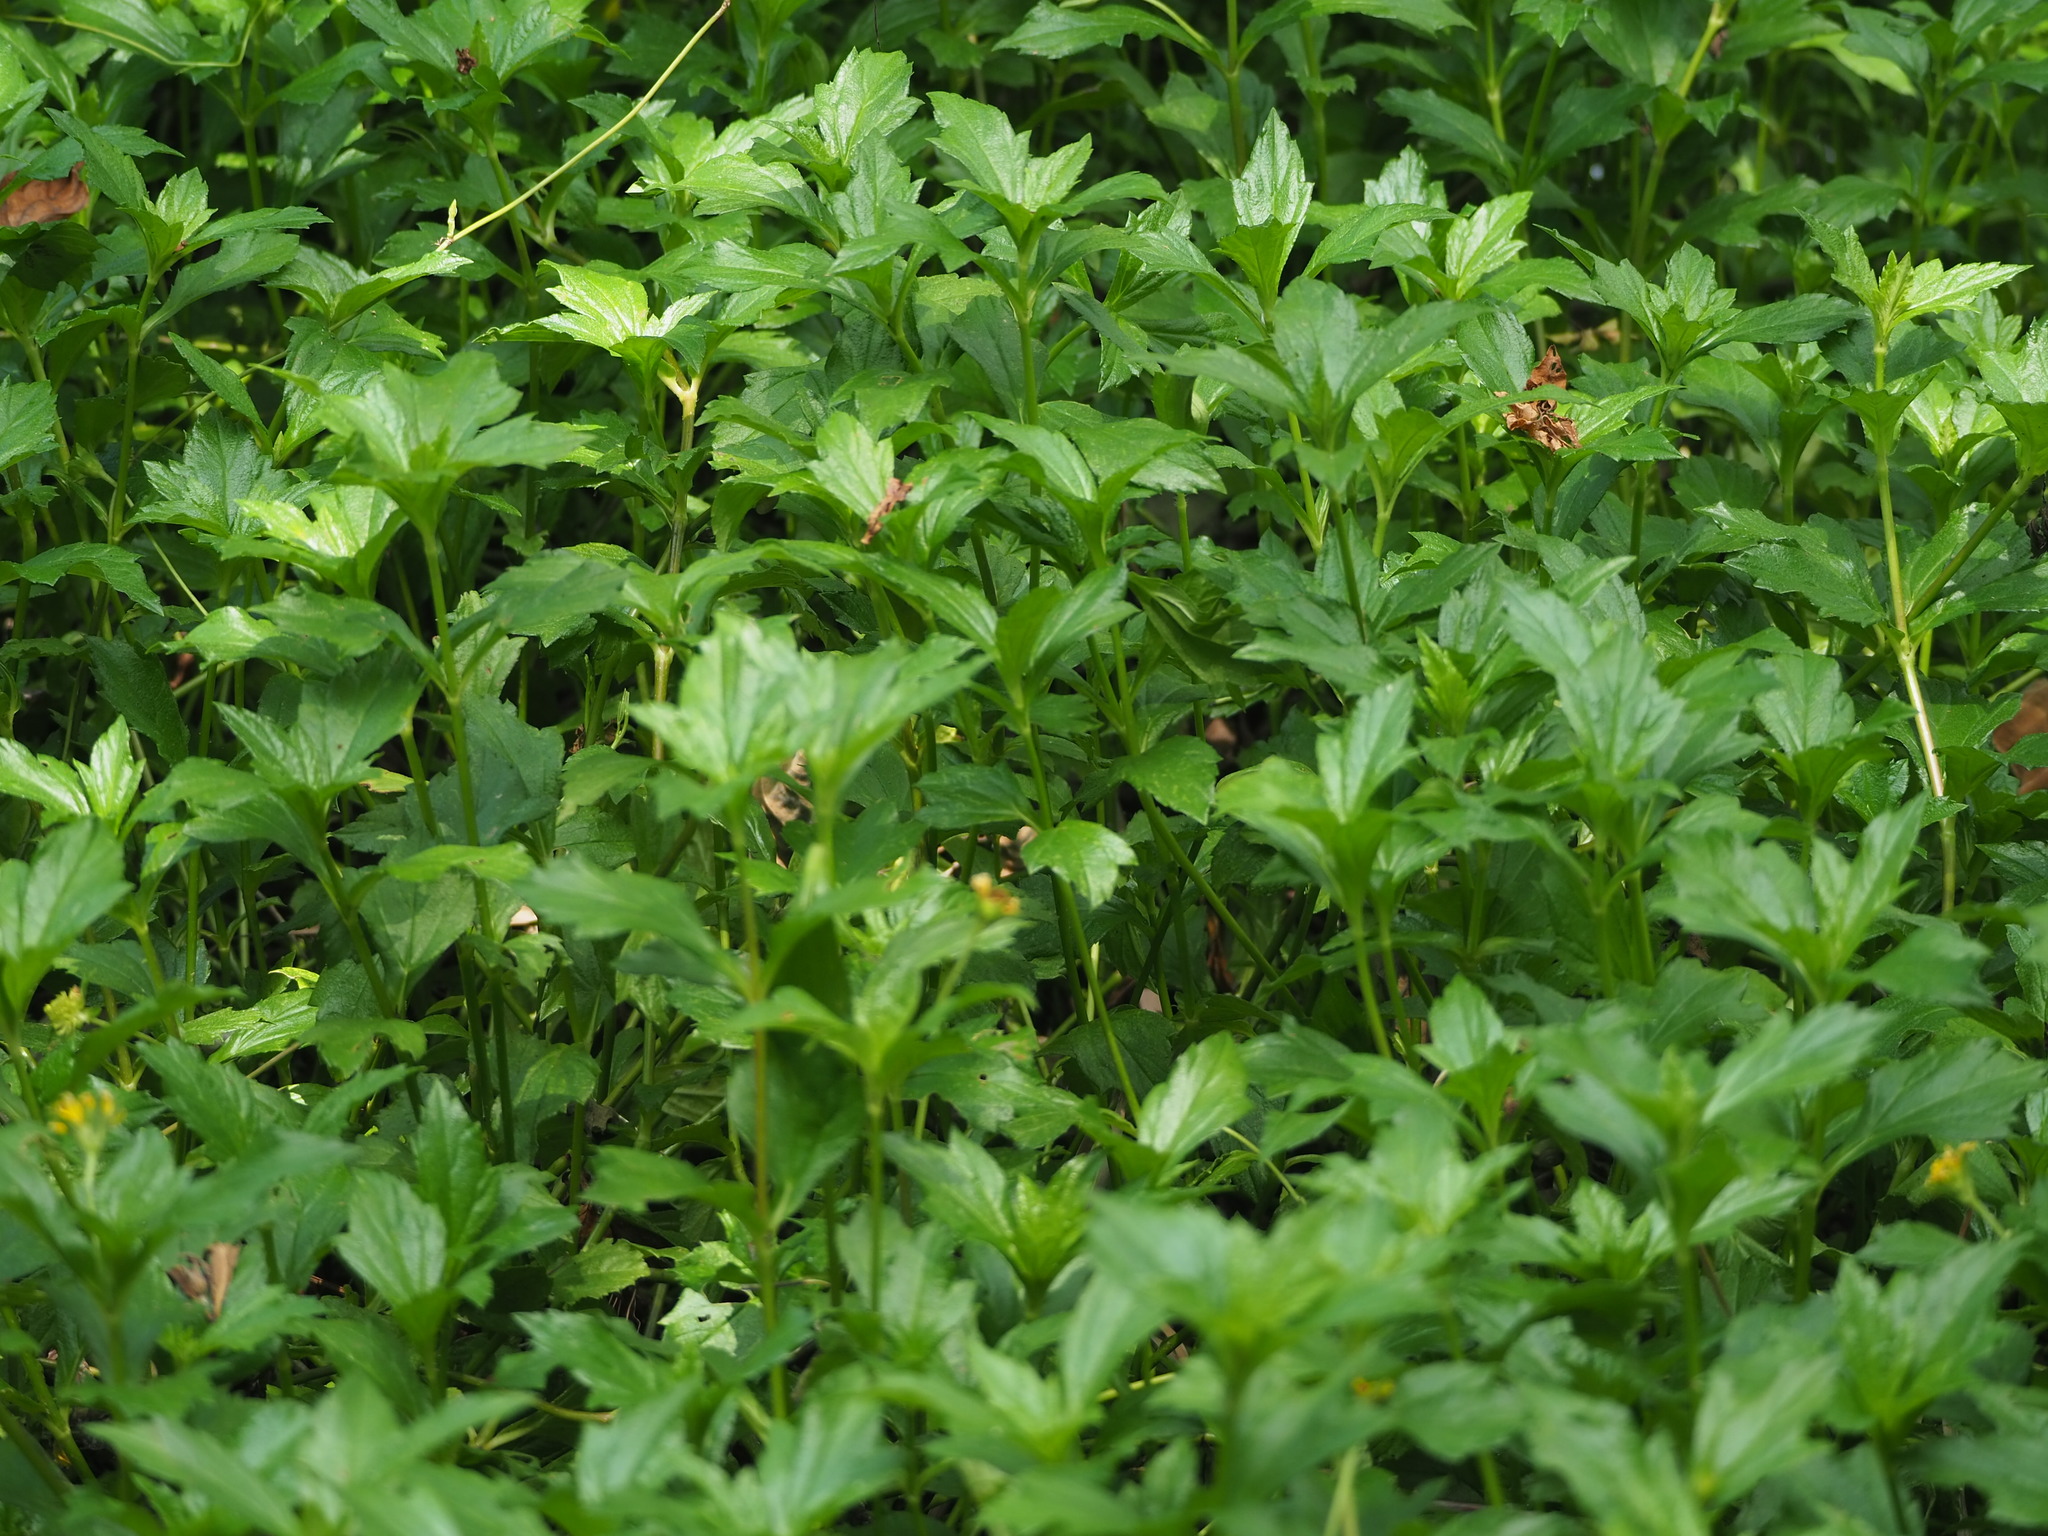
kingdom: Plantae
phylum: Tracheophyta
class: Magnoliopsida
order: Asterales
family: Asteraceae
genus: Sphagneticola
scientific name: Sphagneticola trilobata
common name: Bay biscayne creeping-oxeye
